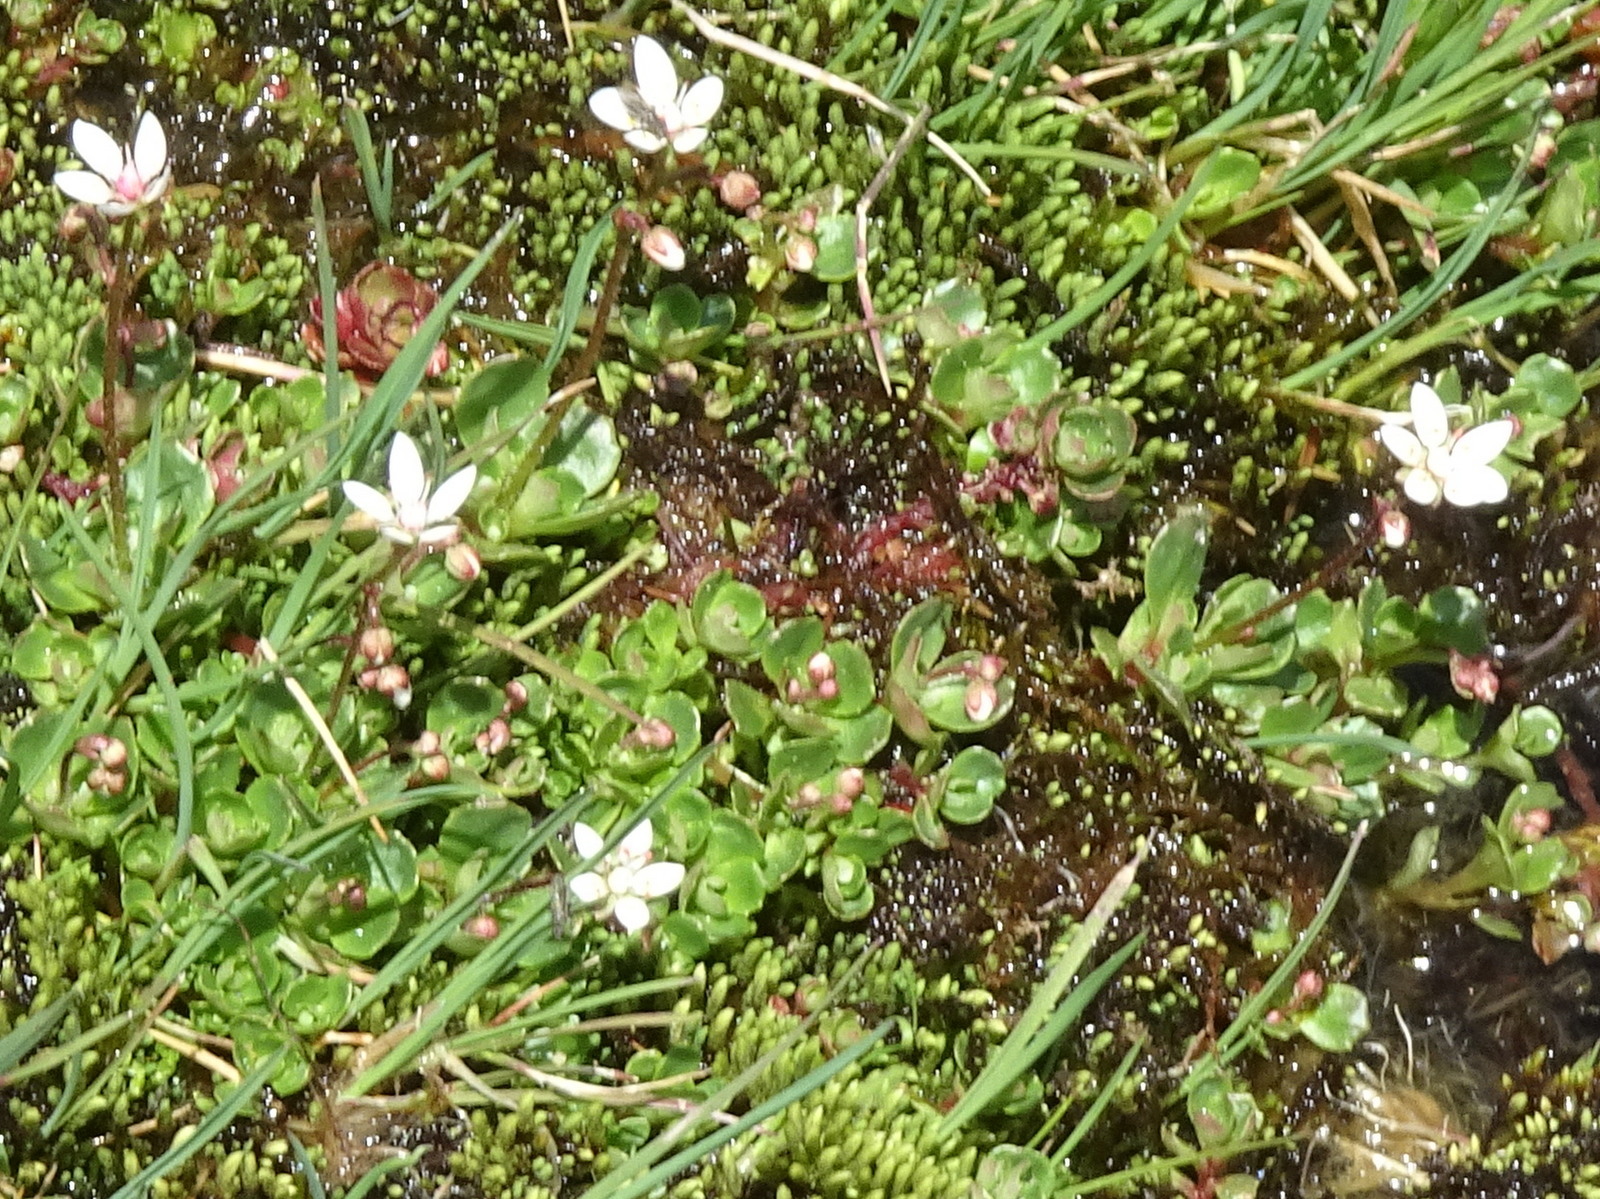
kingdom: Plantae
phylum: Tracheophyta
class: Magnoliopsida
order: Saxifragales
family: Saxifragaceae
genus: Micranthes
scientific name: Micranthes stellaris
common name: Starry saxifrage
